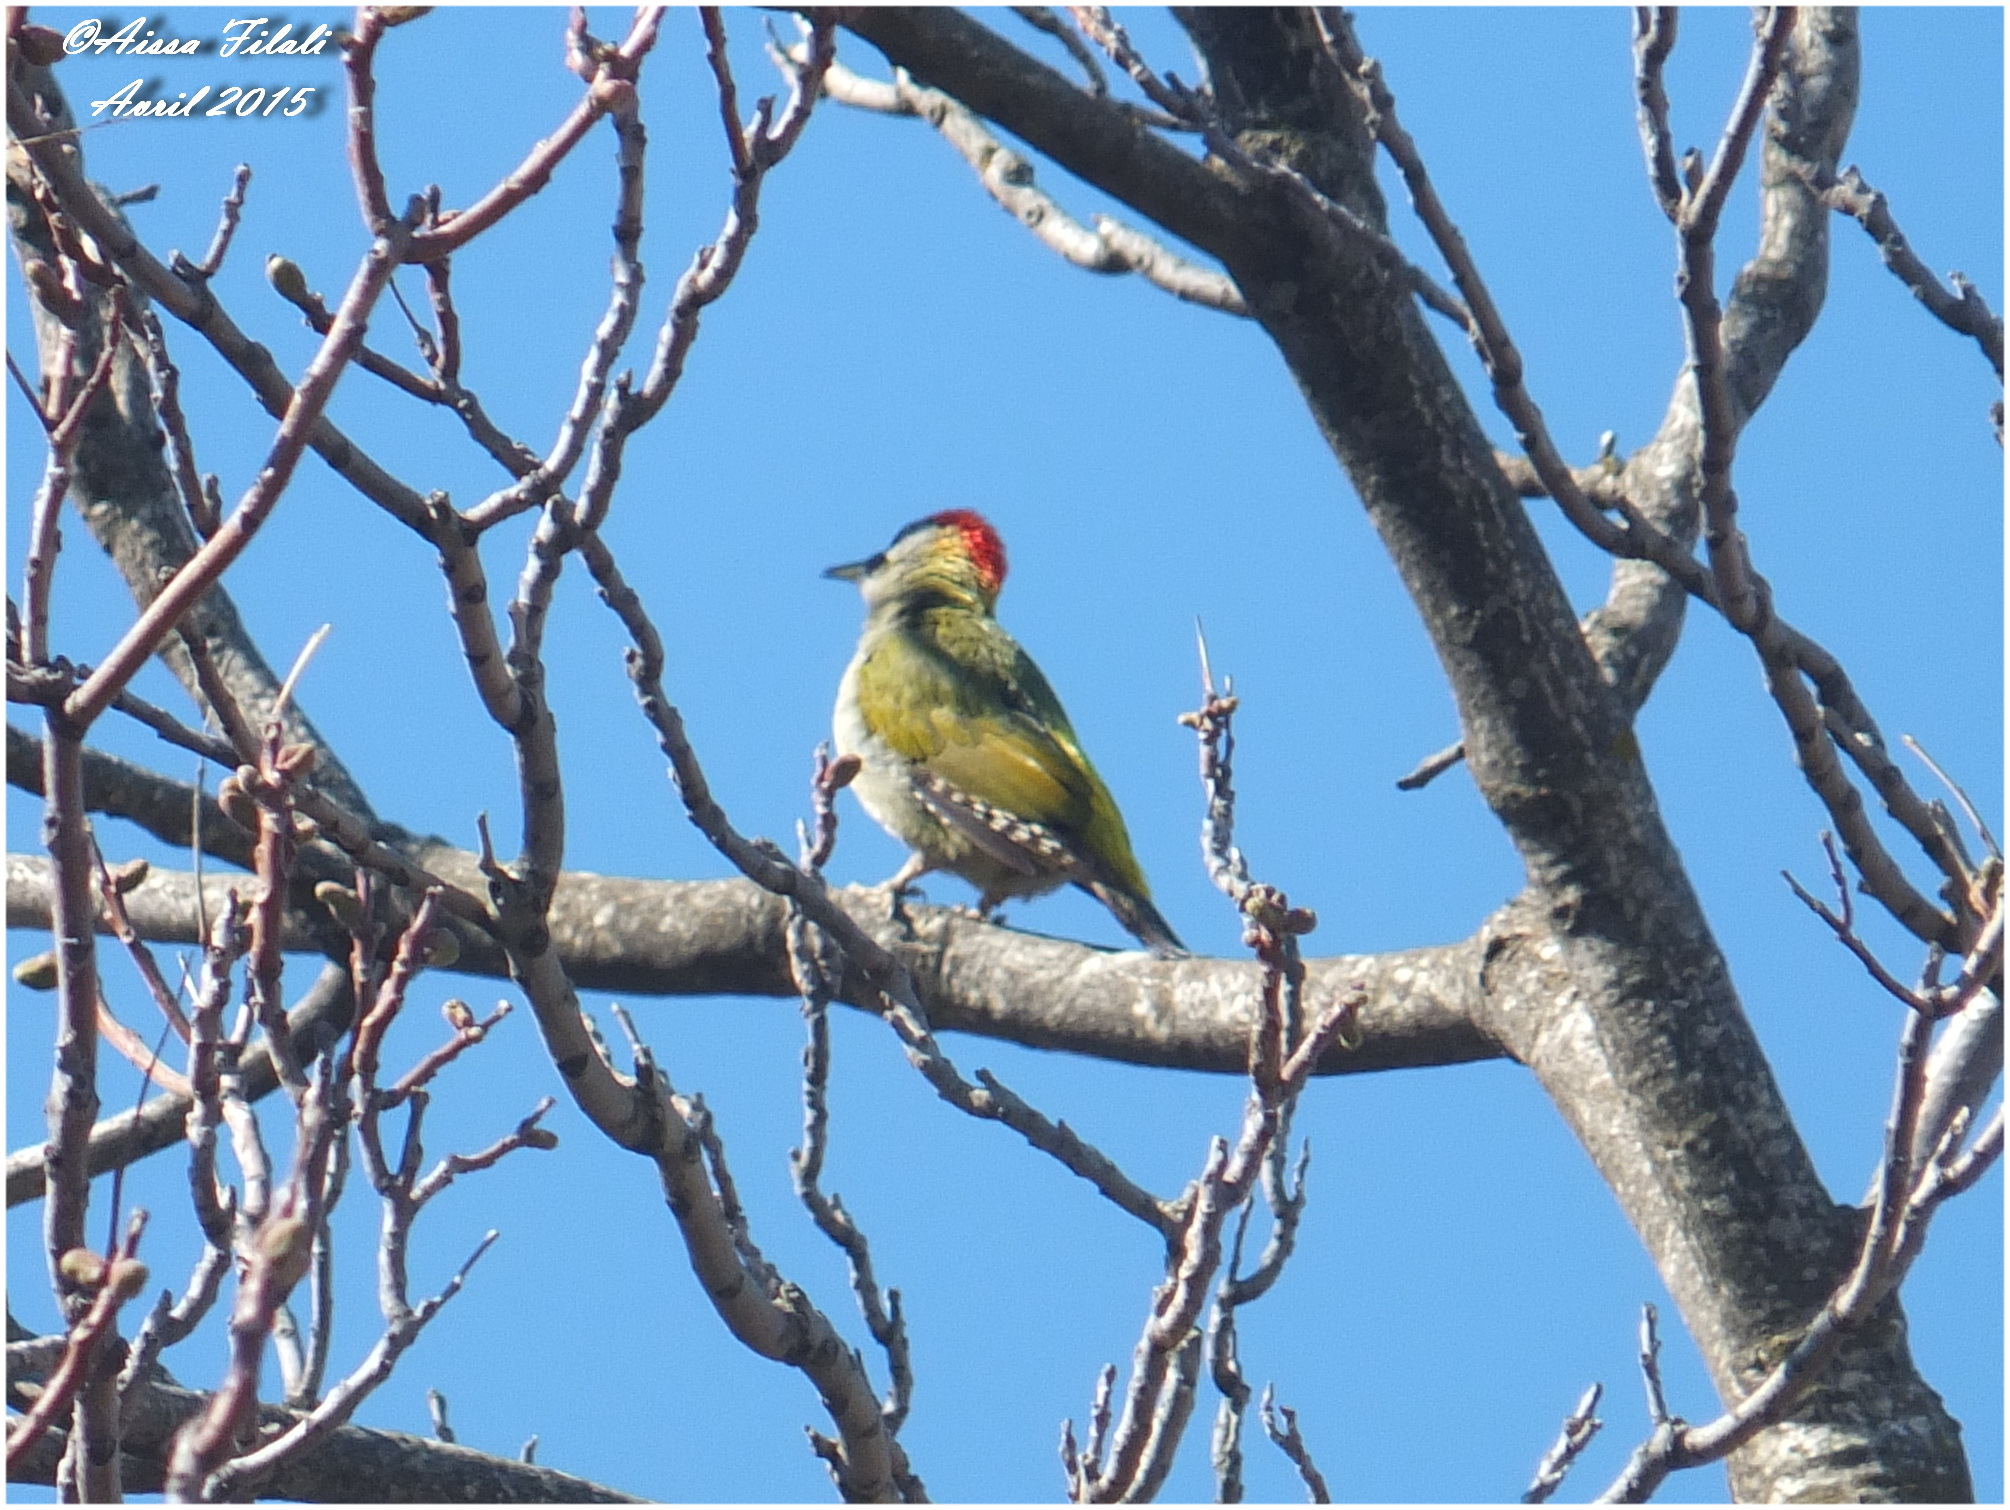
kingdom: Animalia
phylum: Chordata
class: Aves
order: Piciformes
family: Picidae
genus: Picus
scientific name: Picus vaillantii
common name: Levaillant's woodpecker
